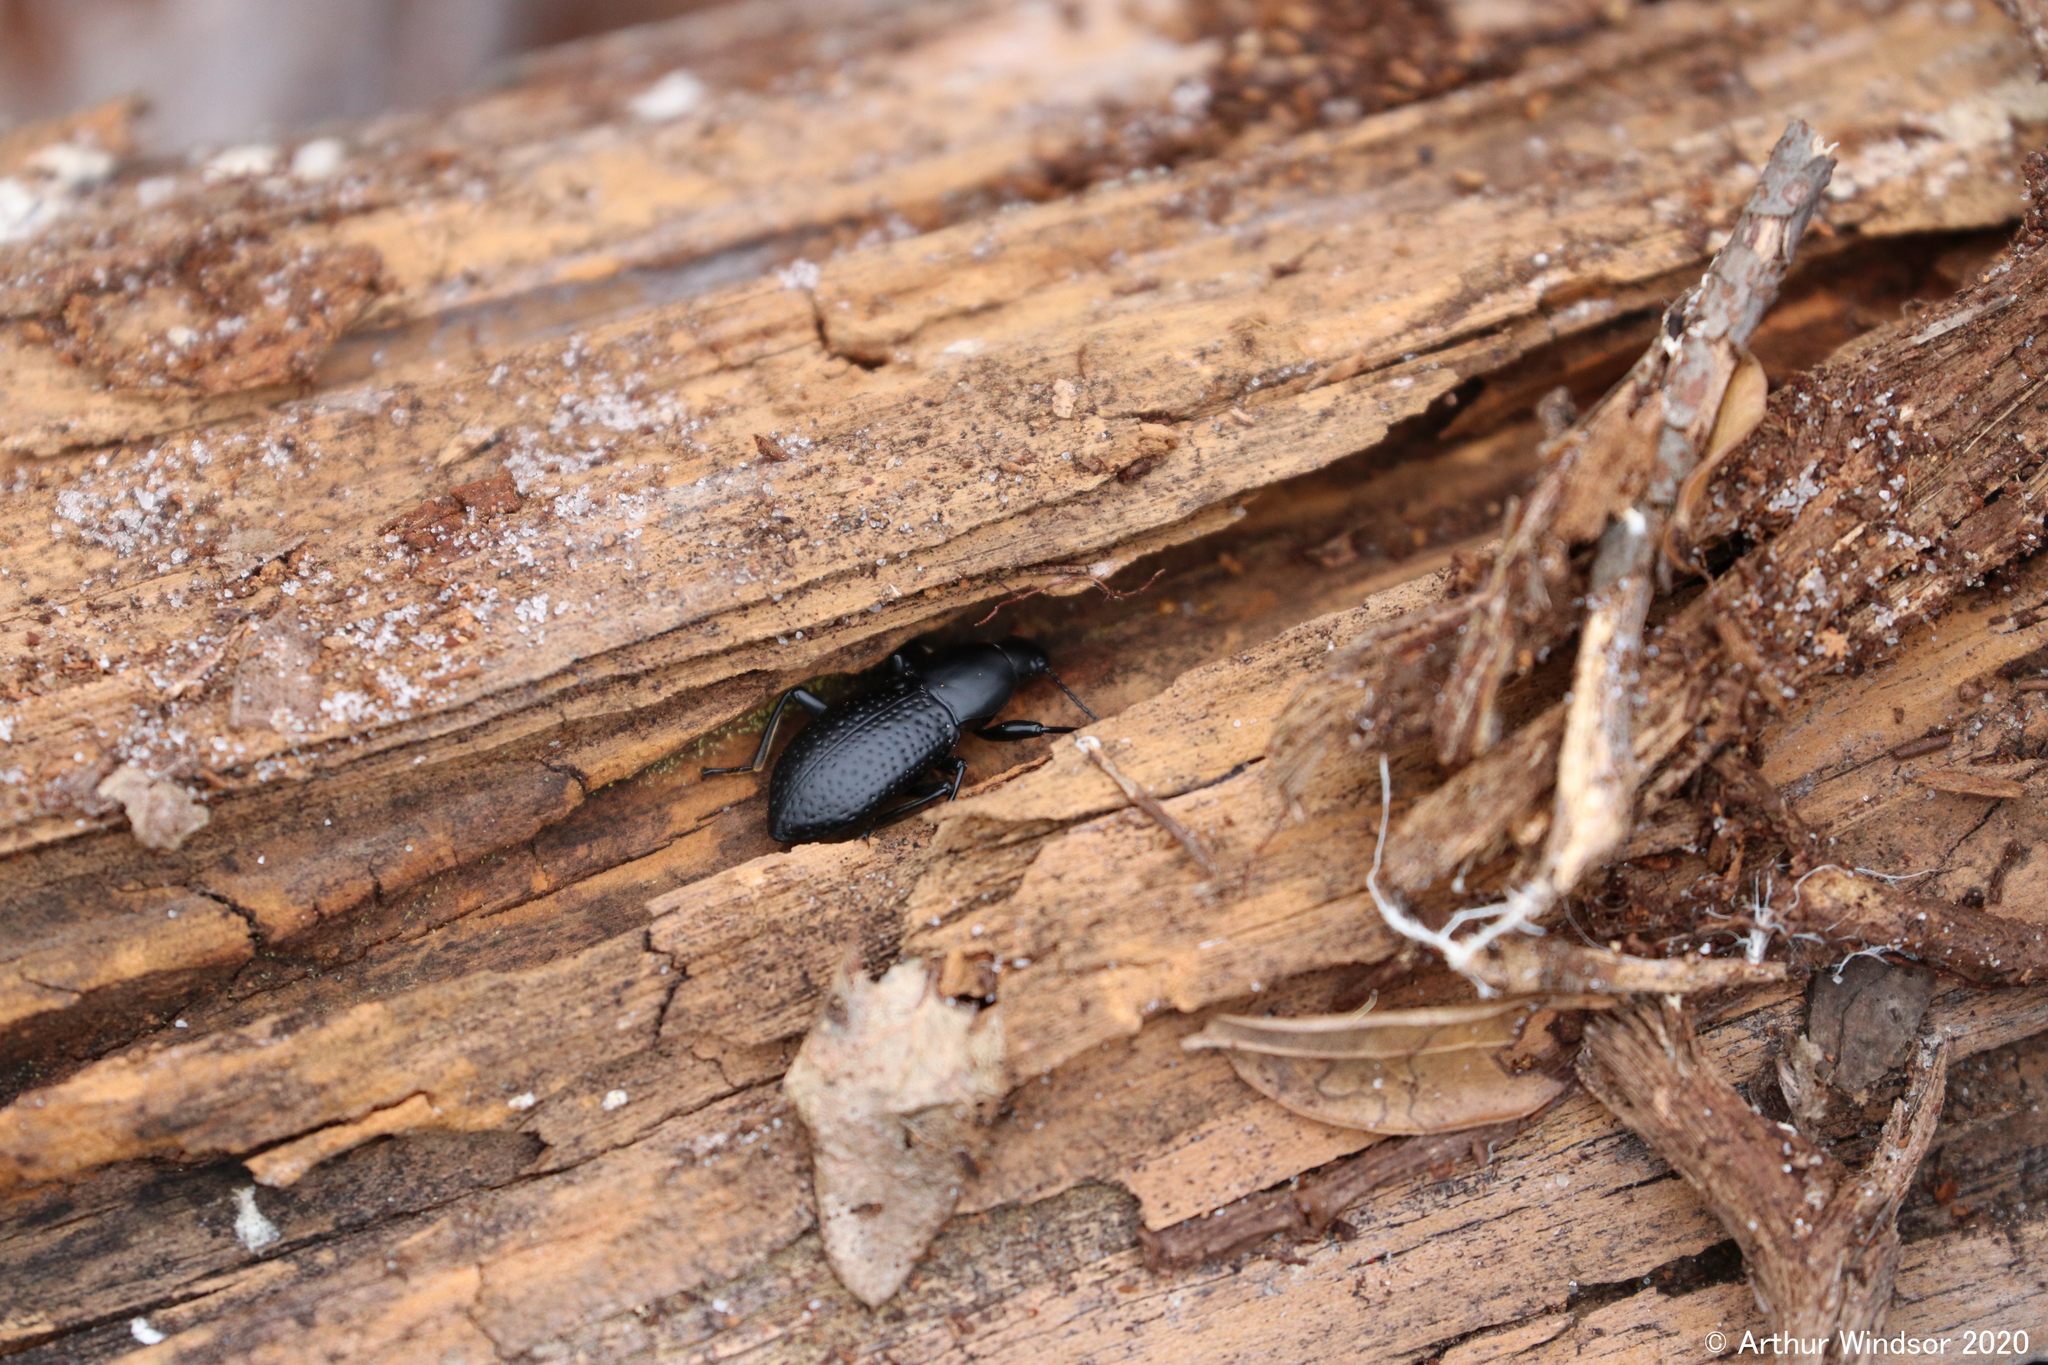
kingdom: Animalia
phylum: Arthropoda
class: Insecta
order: Coleoptera
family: Tenebrionidae
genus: Polopinus
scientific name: Polopinus
